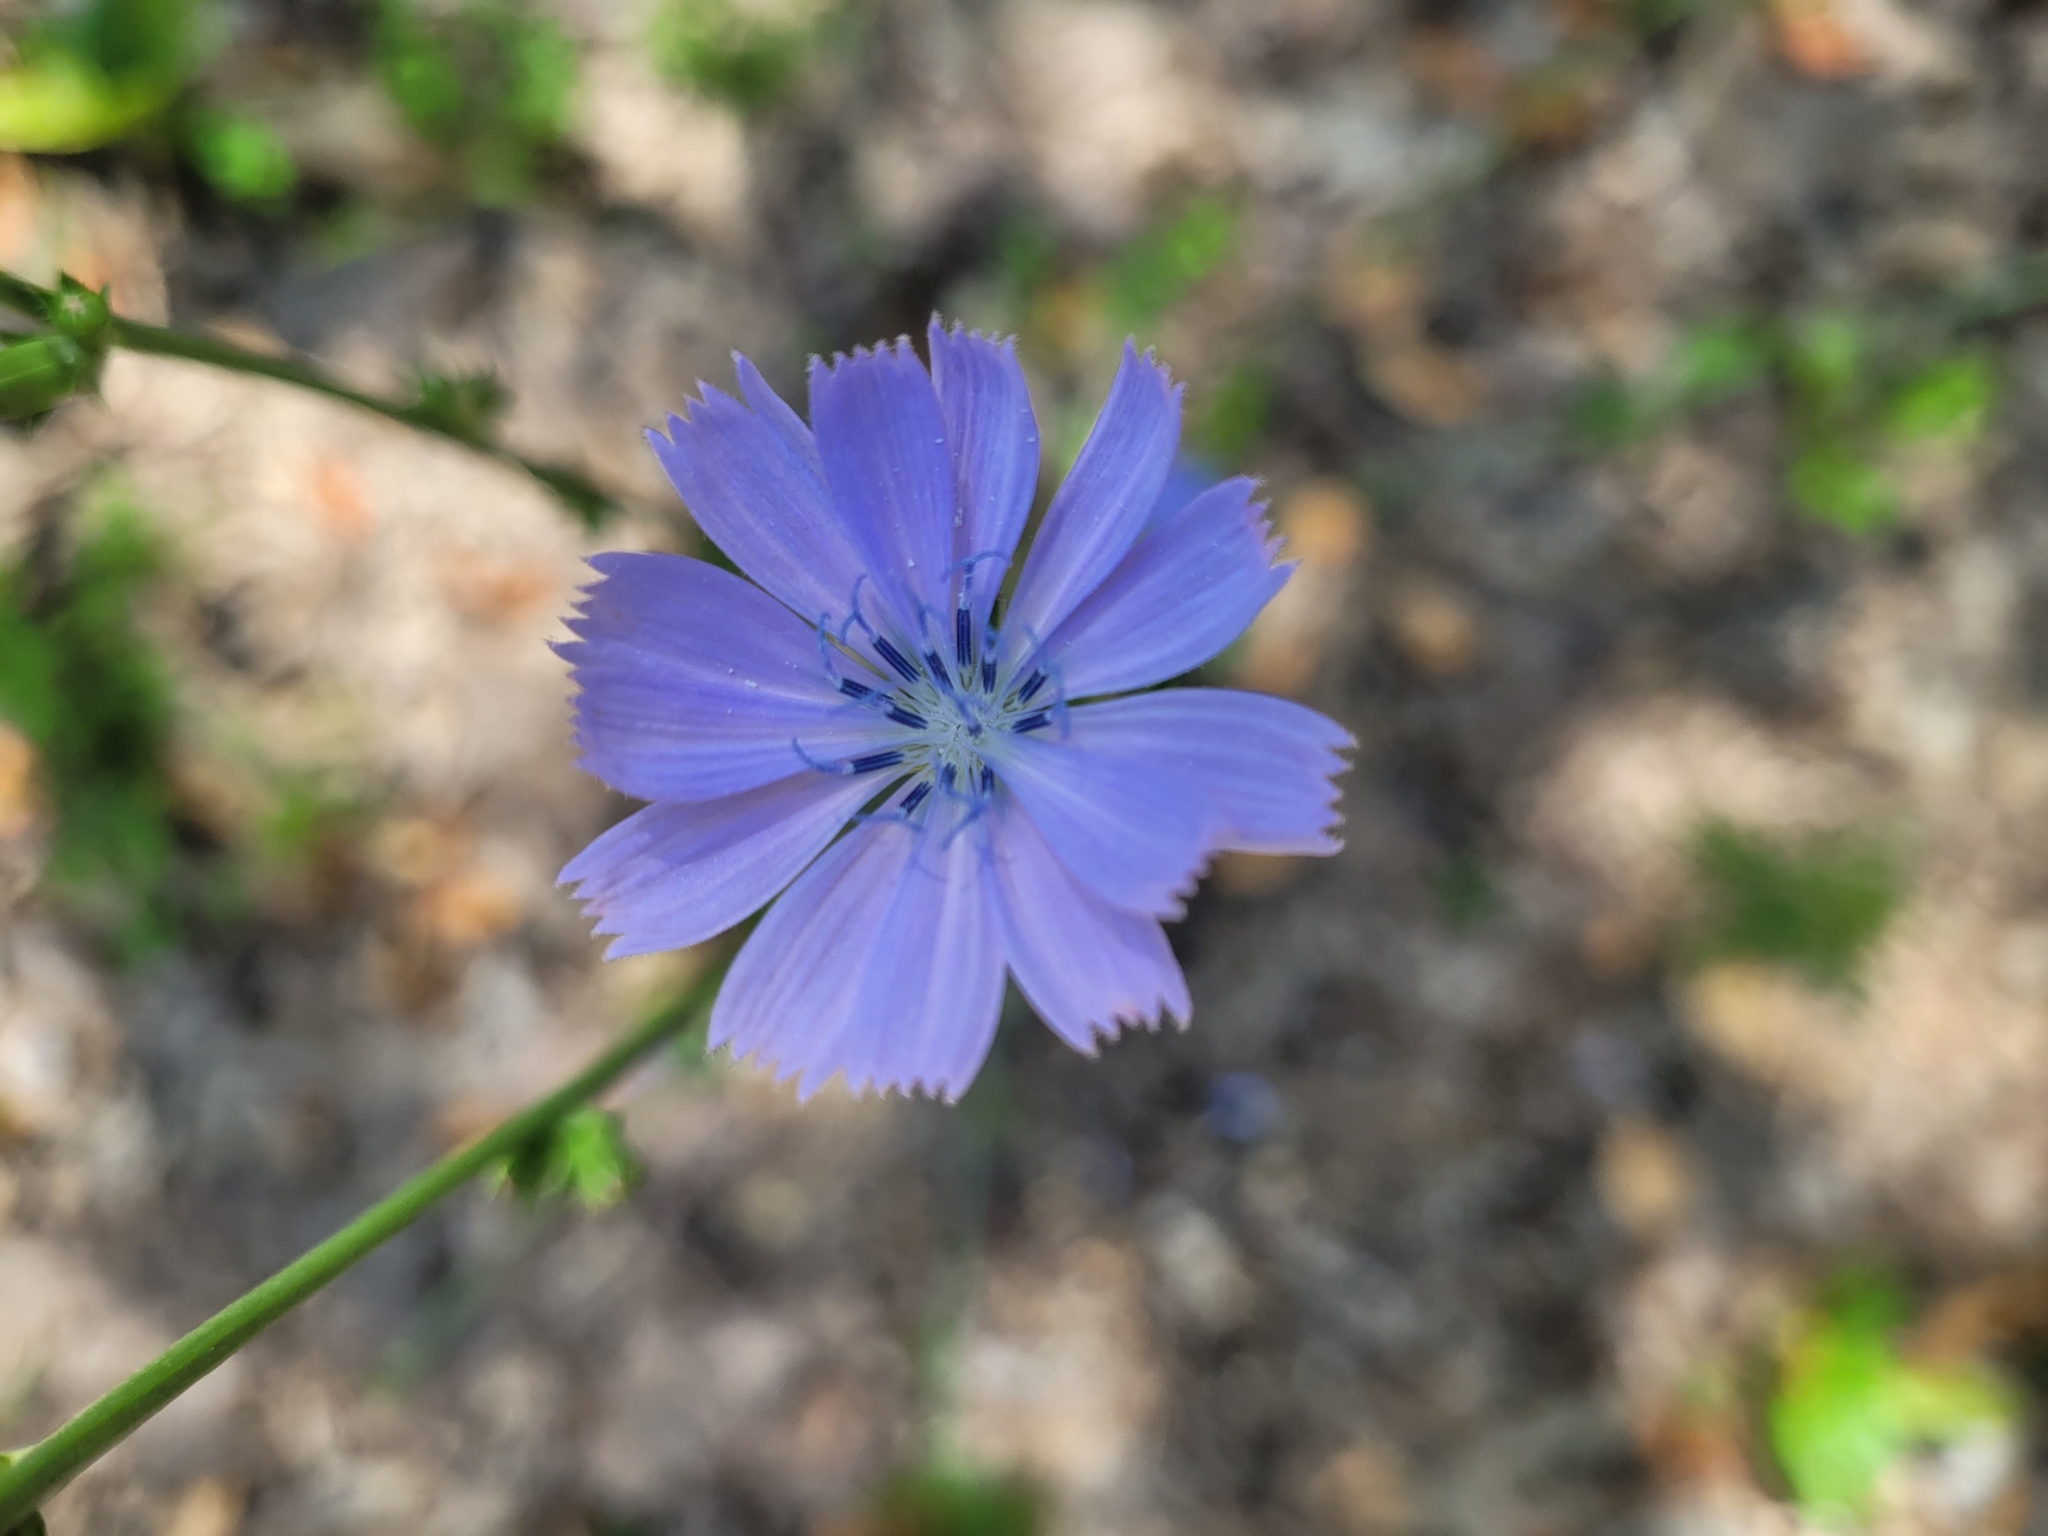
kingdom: Plantae
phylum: Tracheophyta
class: Magnoliopsida
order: Asterales
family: Asteraceae
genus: Cichorium
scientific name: Cichorium intybus
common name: Chicory
